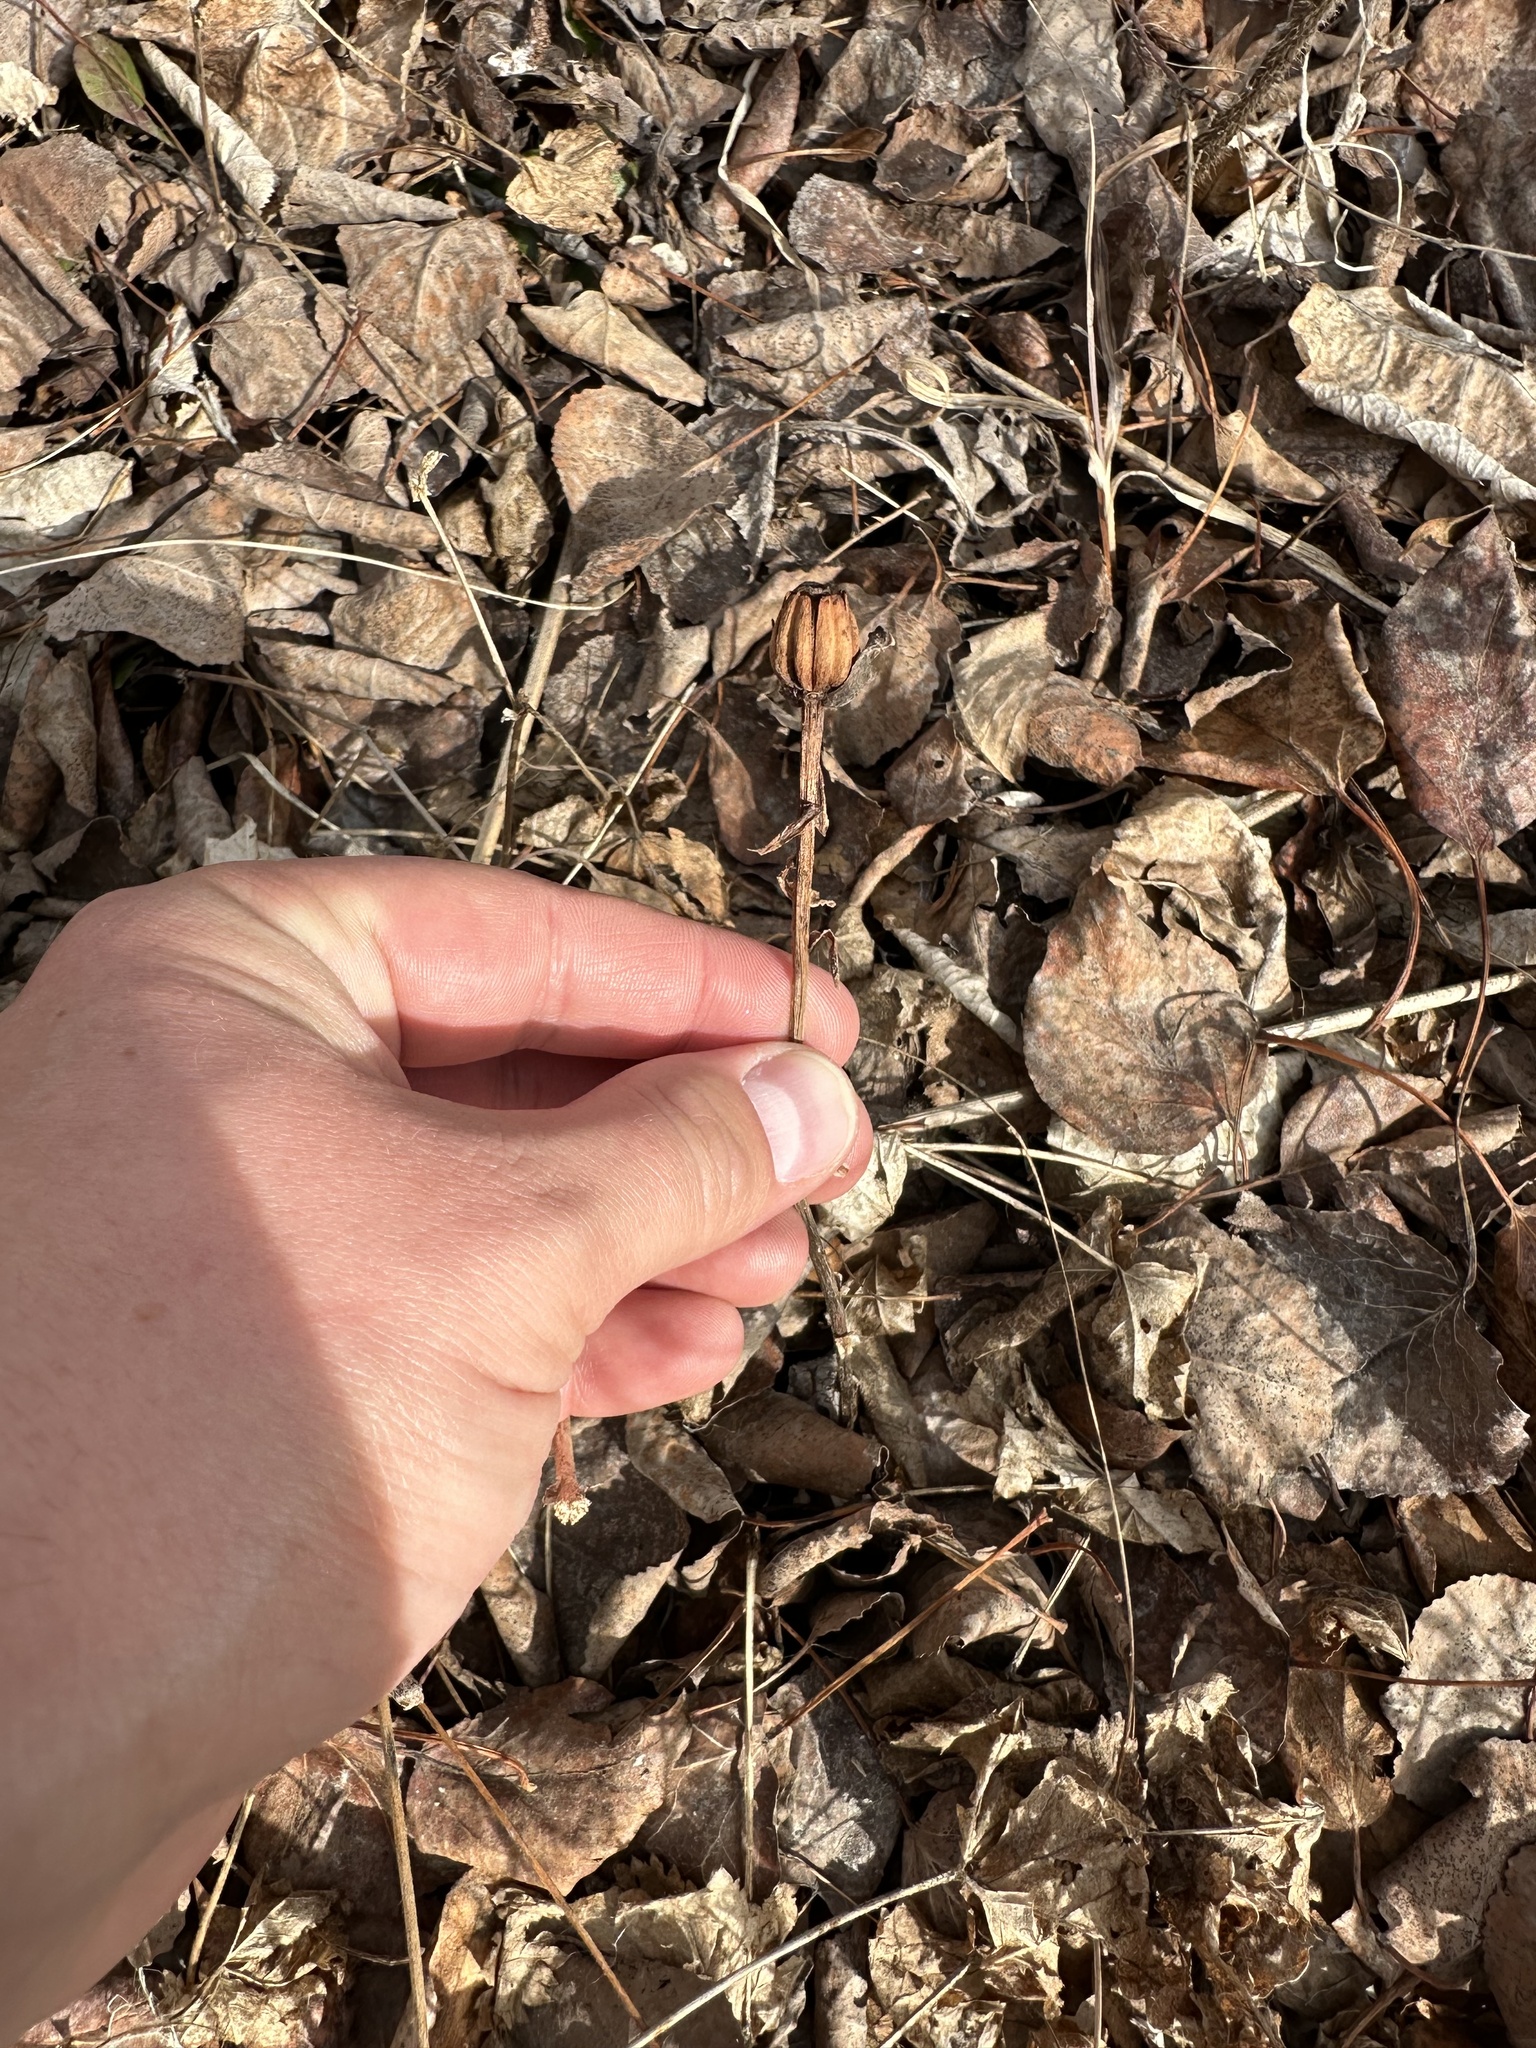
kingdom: Plantae
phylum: Tracheophyta
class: Magnoliopsida
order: Ericales
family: Ericaceae
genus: Monotropa
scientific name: Monotropa uniflora
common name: Convulsion root
